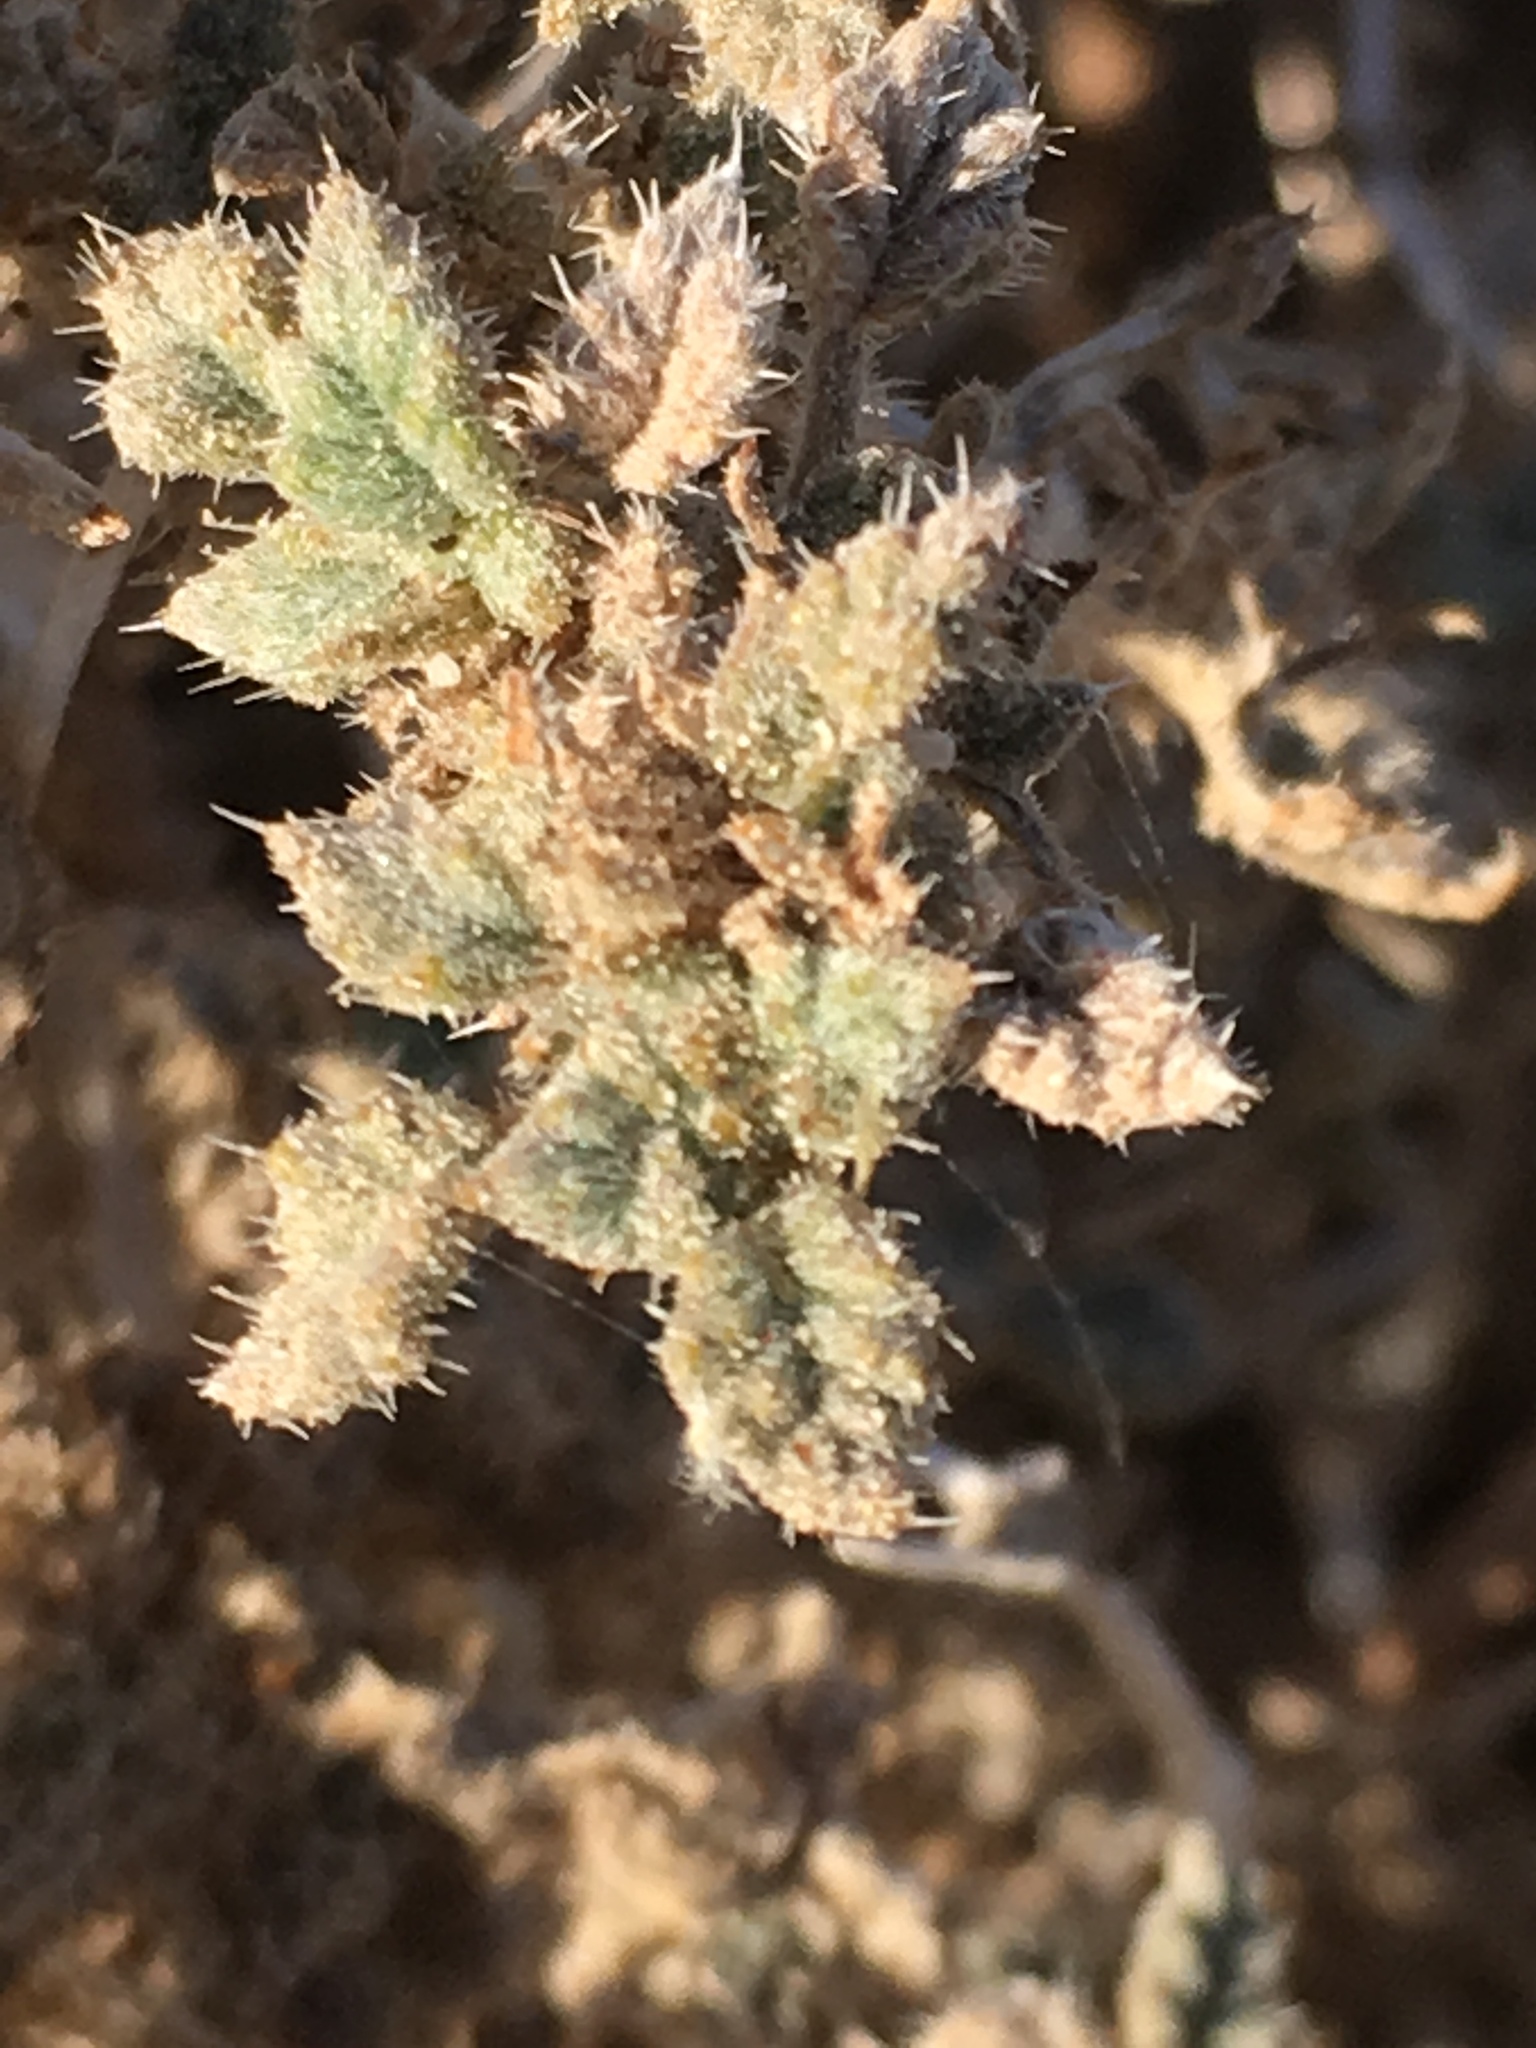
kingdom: Plantae
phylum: Tracheophyta
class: Magnoliopsida
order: Boraginales
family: Ehretiaceae
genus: Tiquilia
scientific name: Tiquilia palmeri
